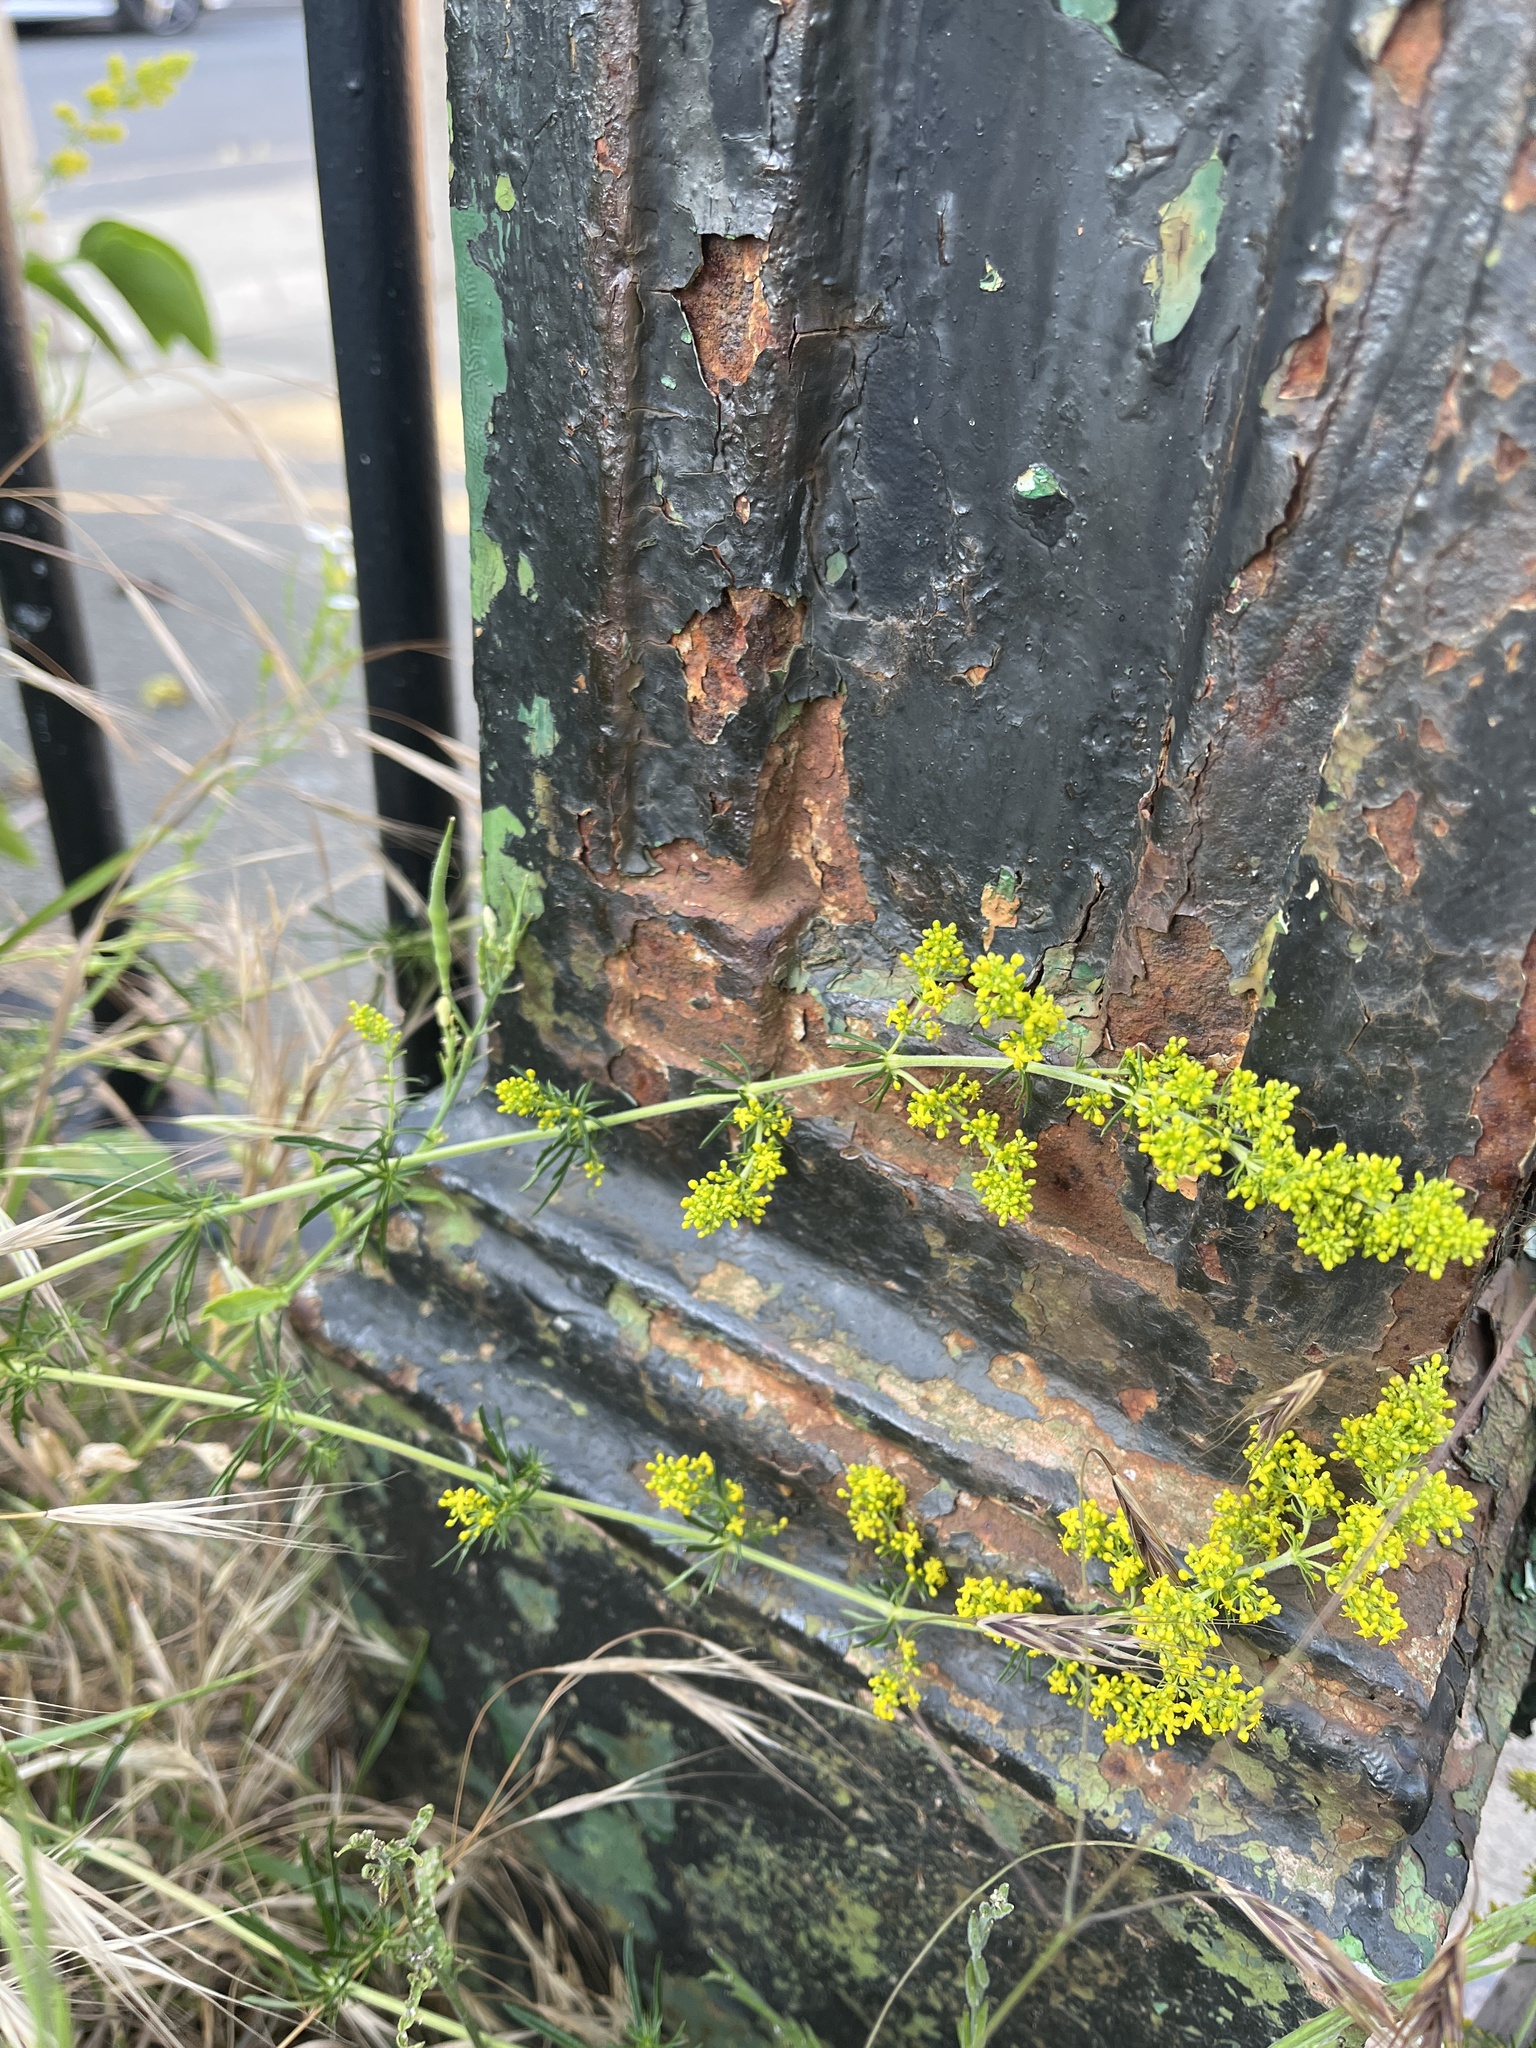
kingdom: Plantae
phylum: Tracheophyta
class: Magnoliopsida
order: Gentianales
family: Rubiaceae
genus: Galium
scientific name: Galium verum
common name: Lady's bedstraw
